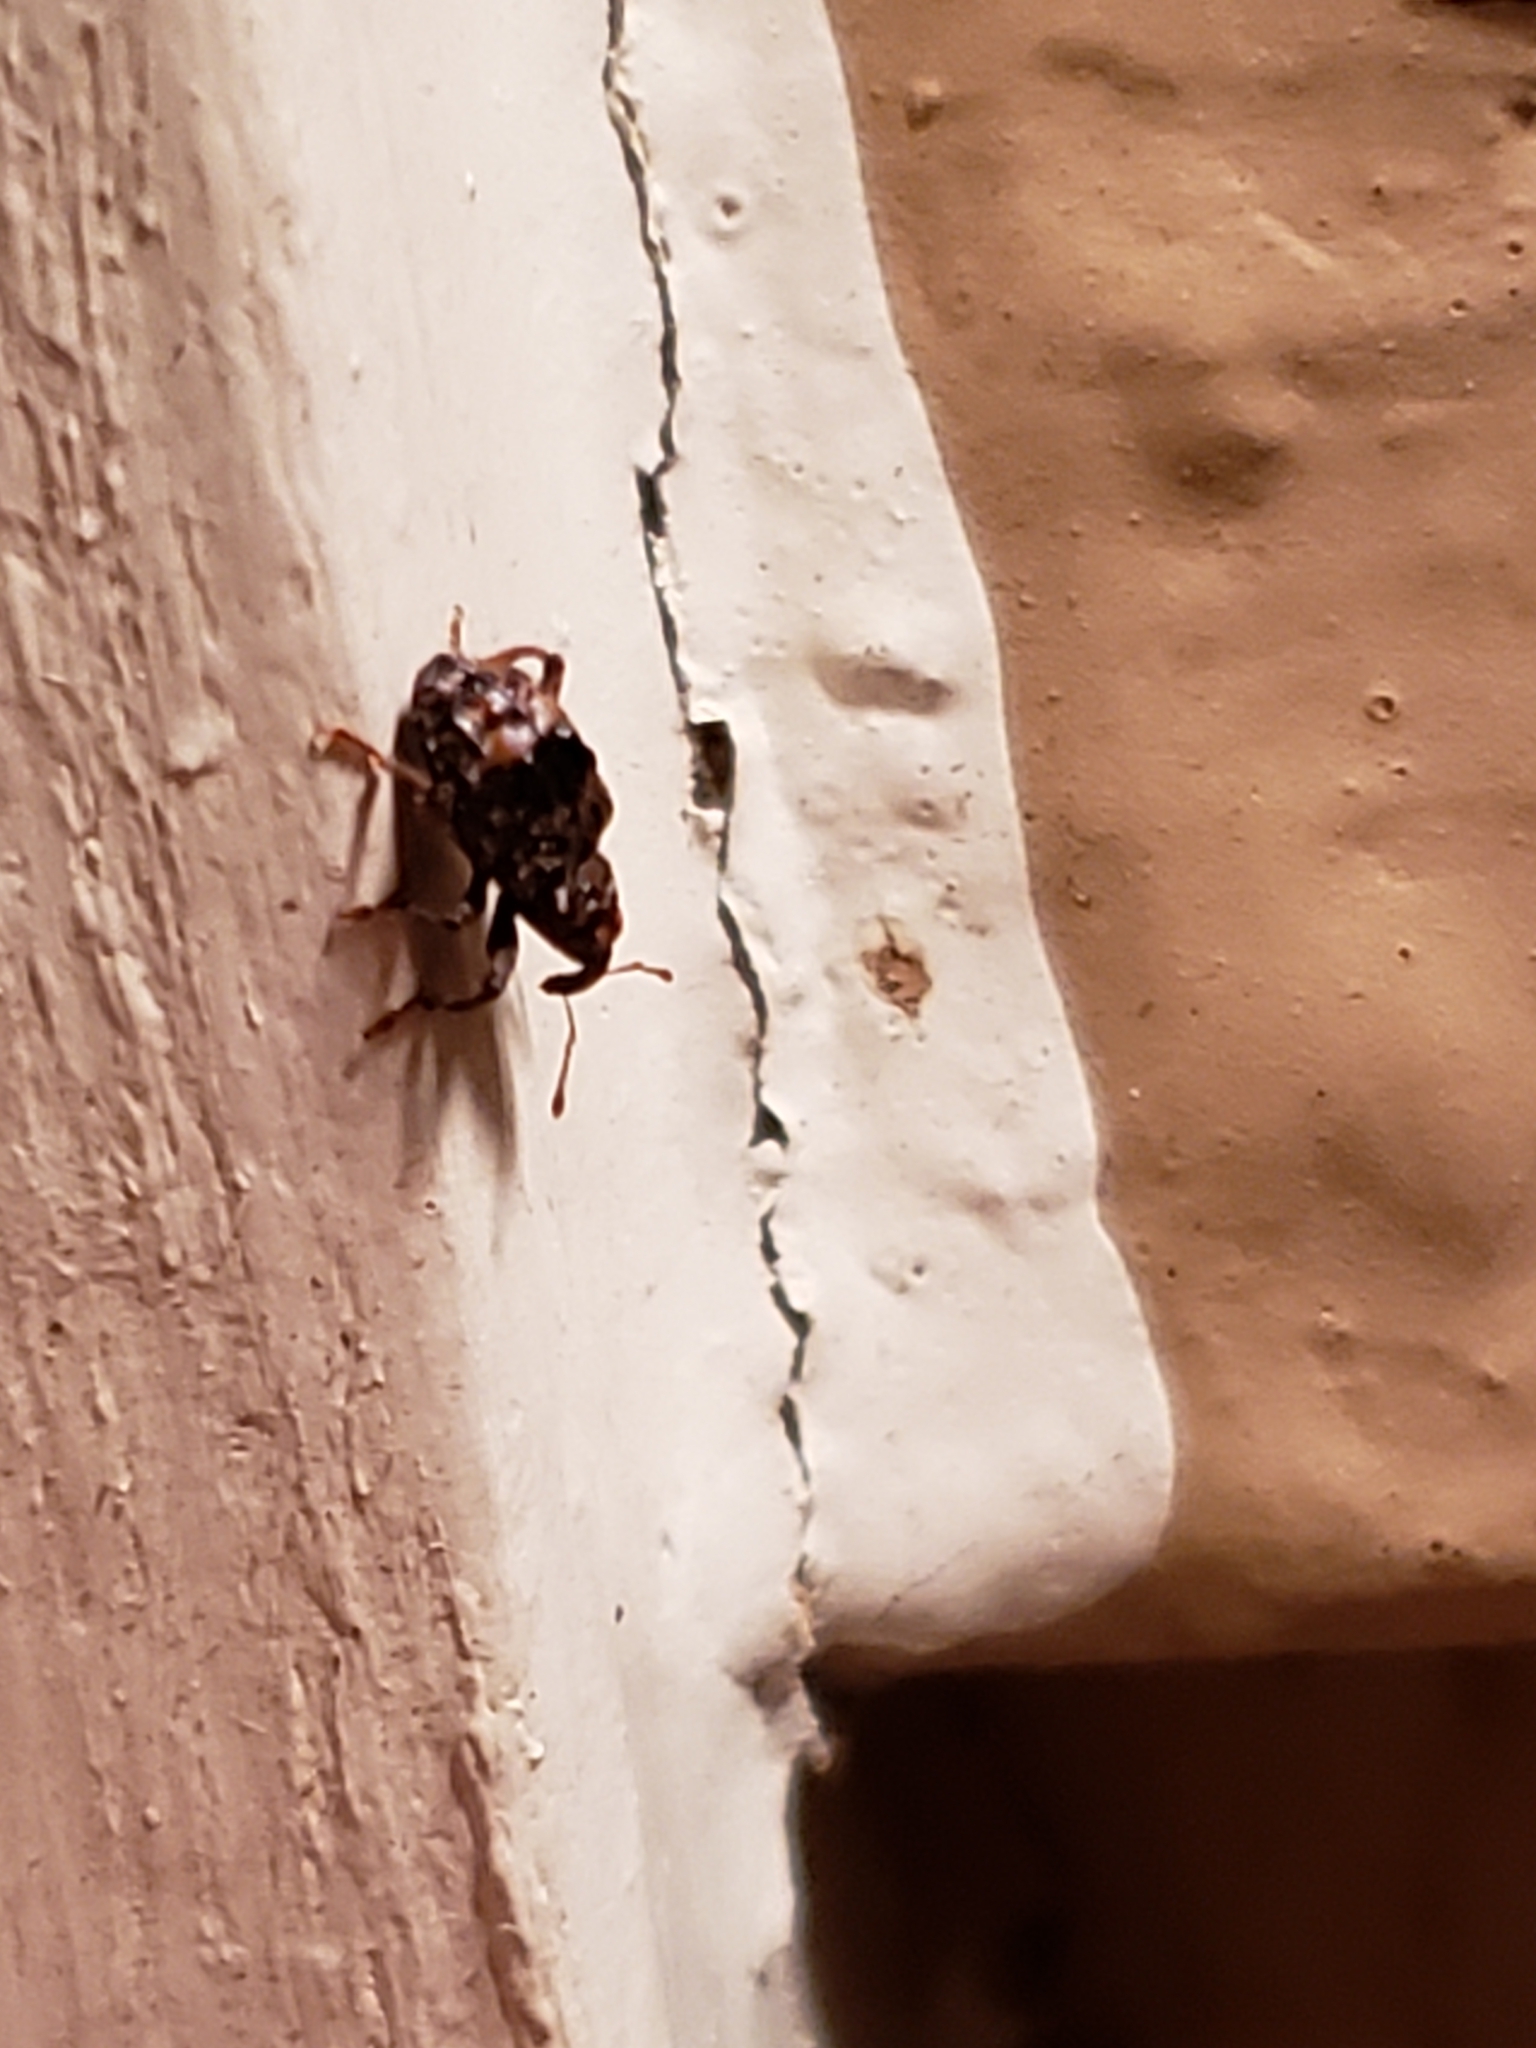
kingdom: Animalia
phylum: Arthropoda
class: Insecta
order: Coleoptera
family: Curculionidae
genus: Conotrachelus
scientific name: Conotrachelus nenuphar
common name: Plum curculio
